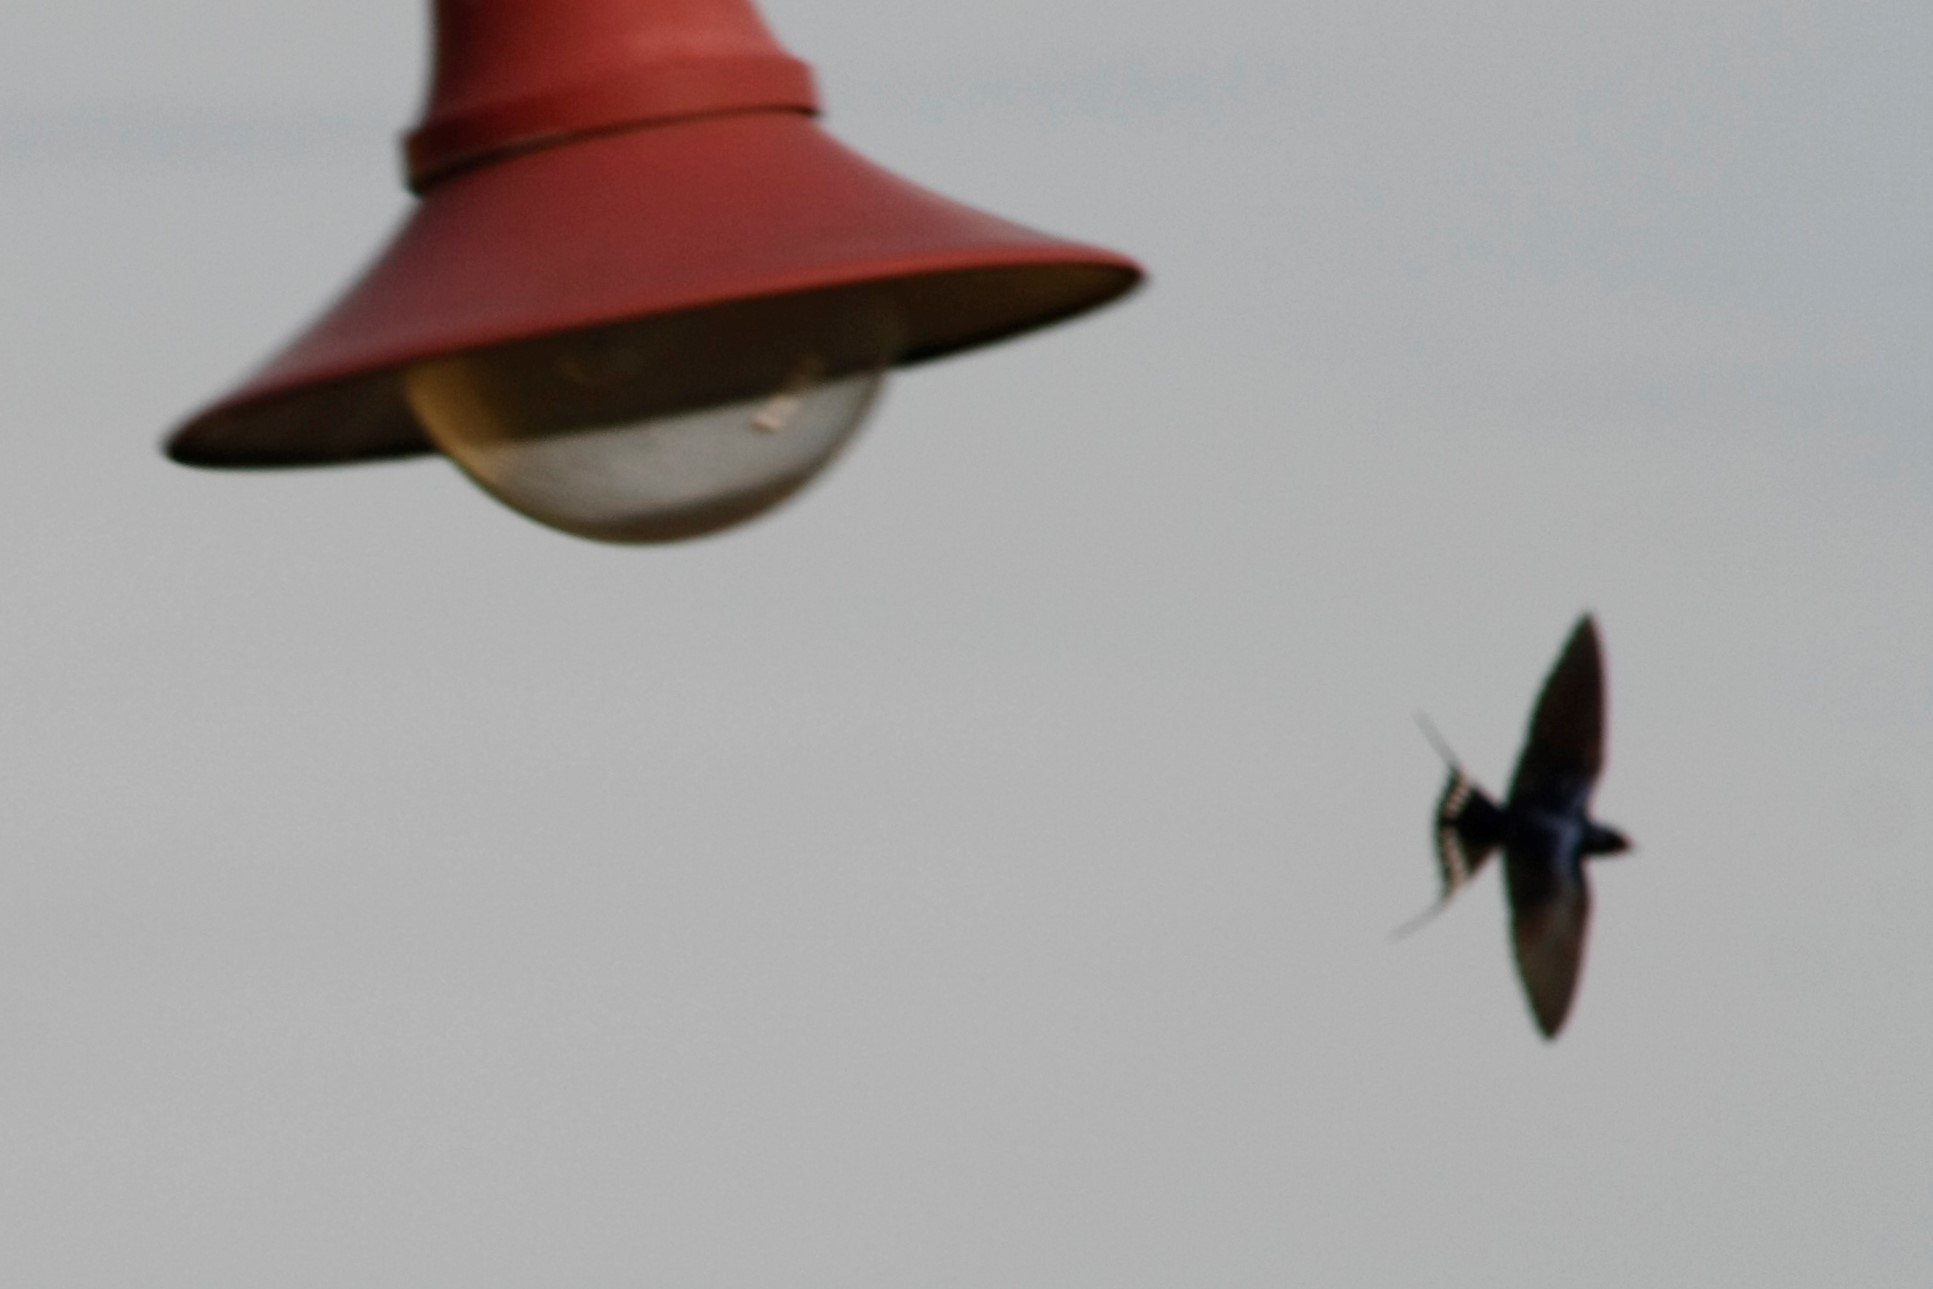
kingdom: Animalia
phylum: Chordata
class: Aves
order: Passeriformes
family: Hirundinidae
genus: Hirundo
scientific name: Hirundo rustica
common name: Barn swallow
